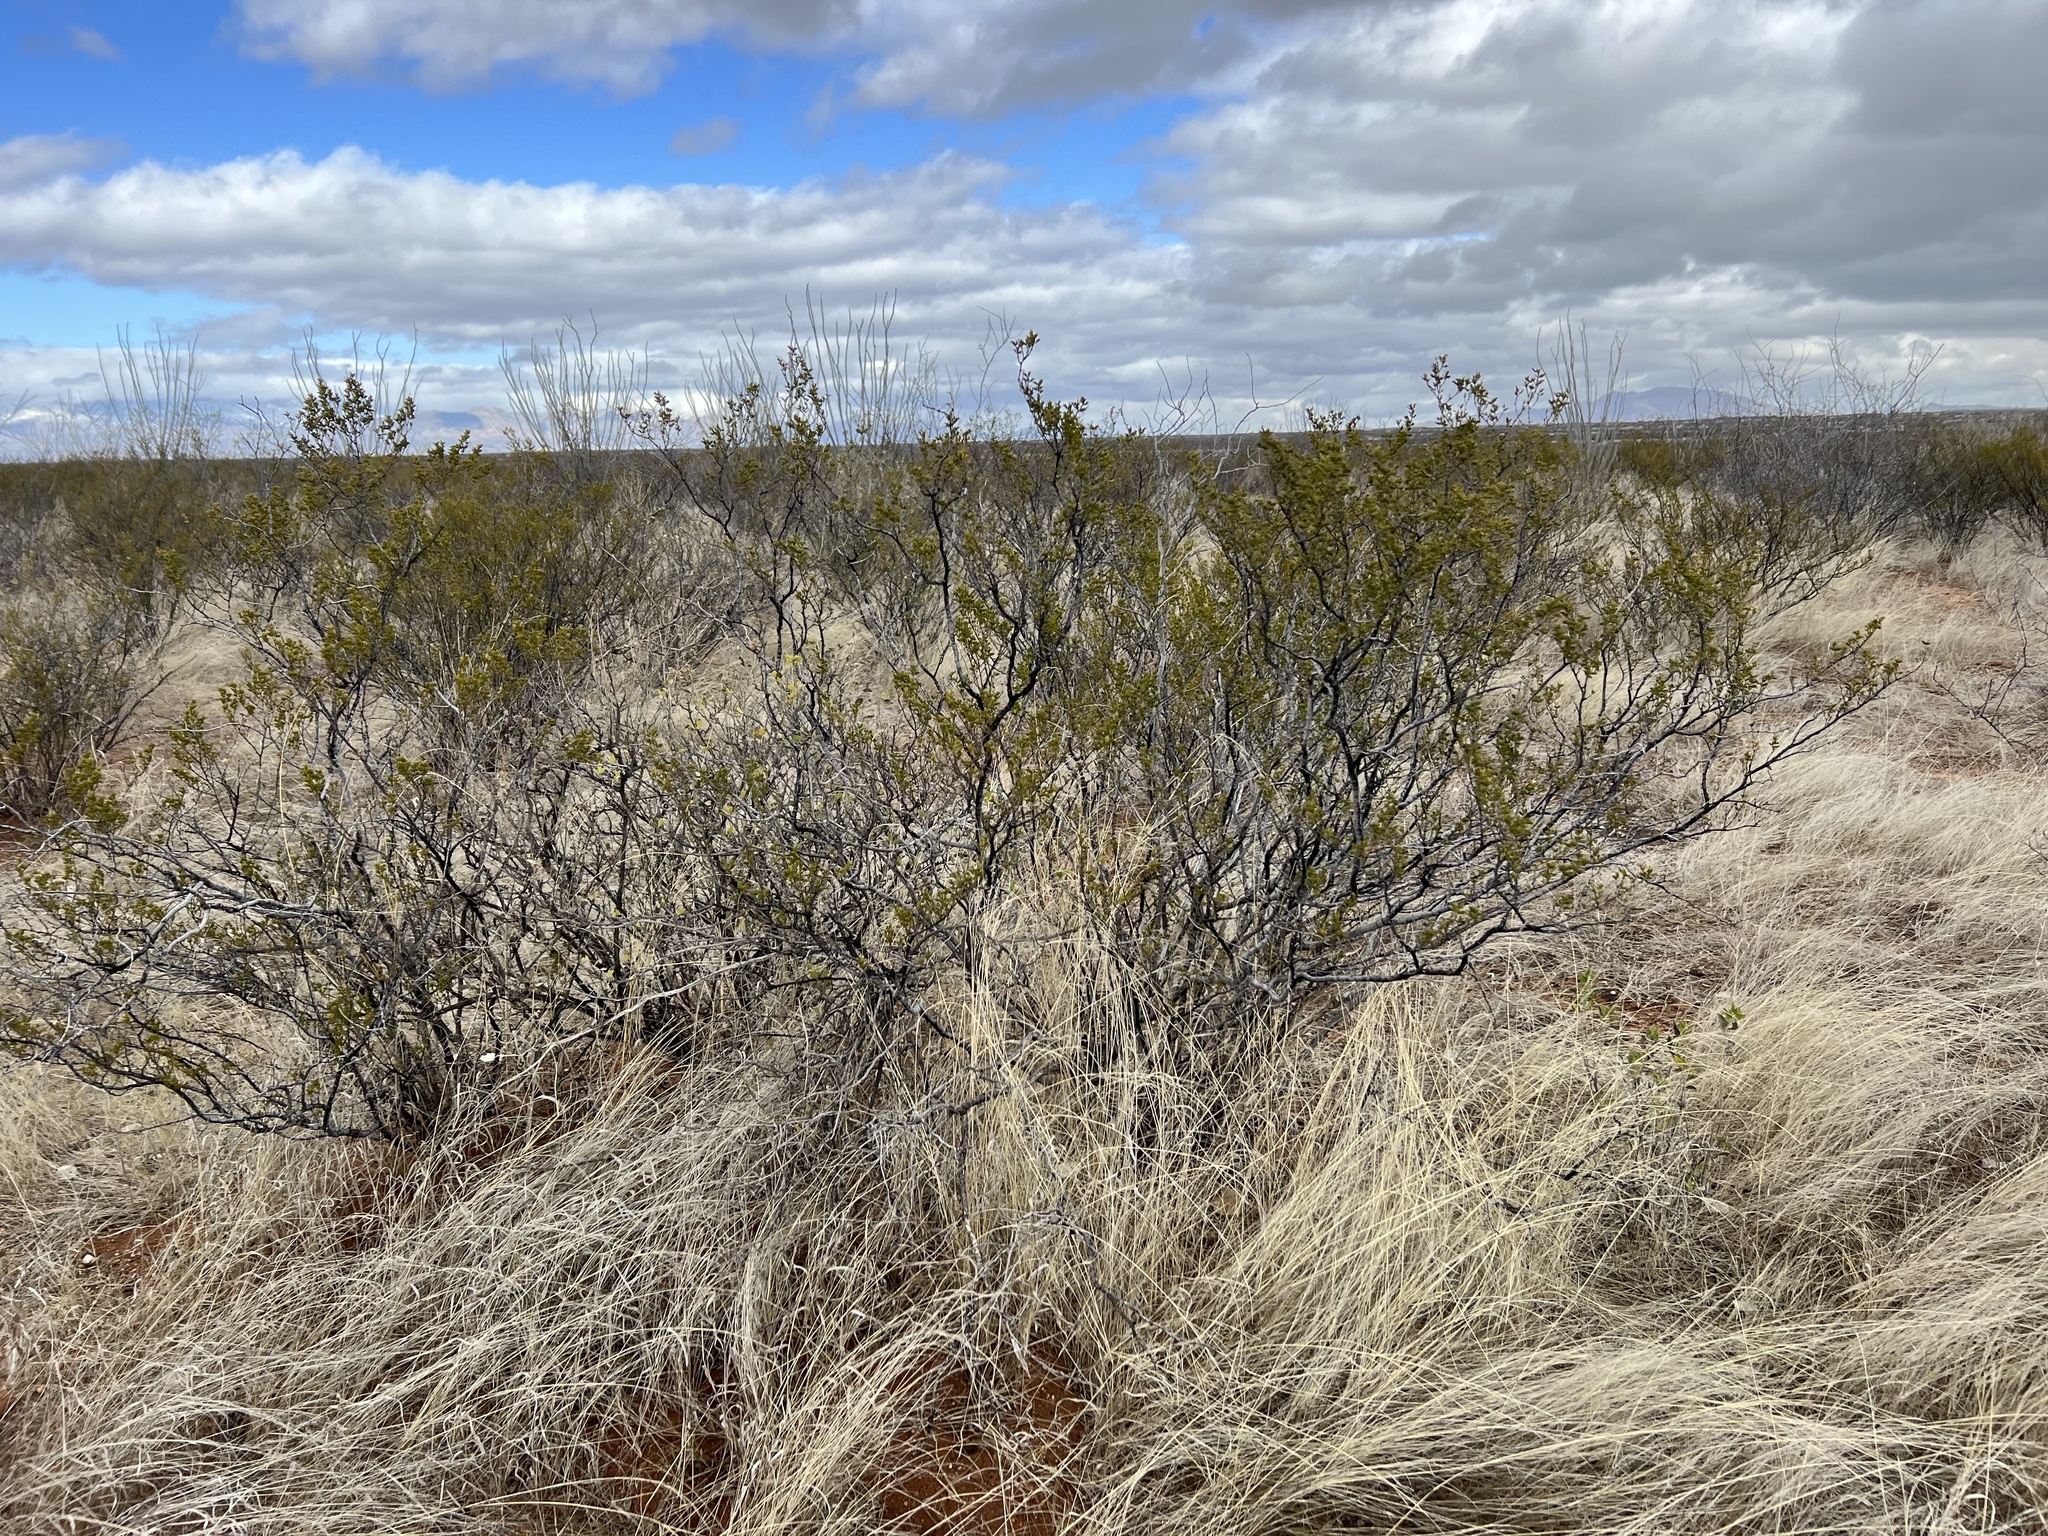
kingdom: Plantae
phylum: Tracheophyta
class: Magnoliopsida
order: Zygophyllales
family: Zygophyllaceae
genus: Larrea
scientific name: Larrea tridentata
